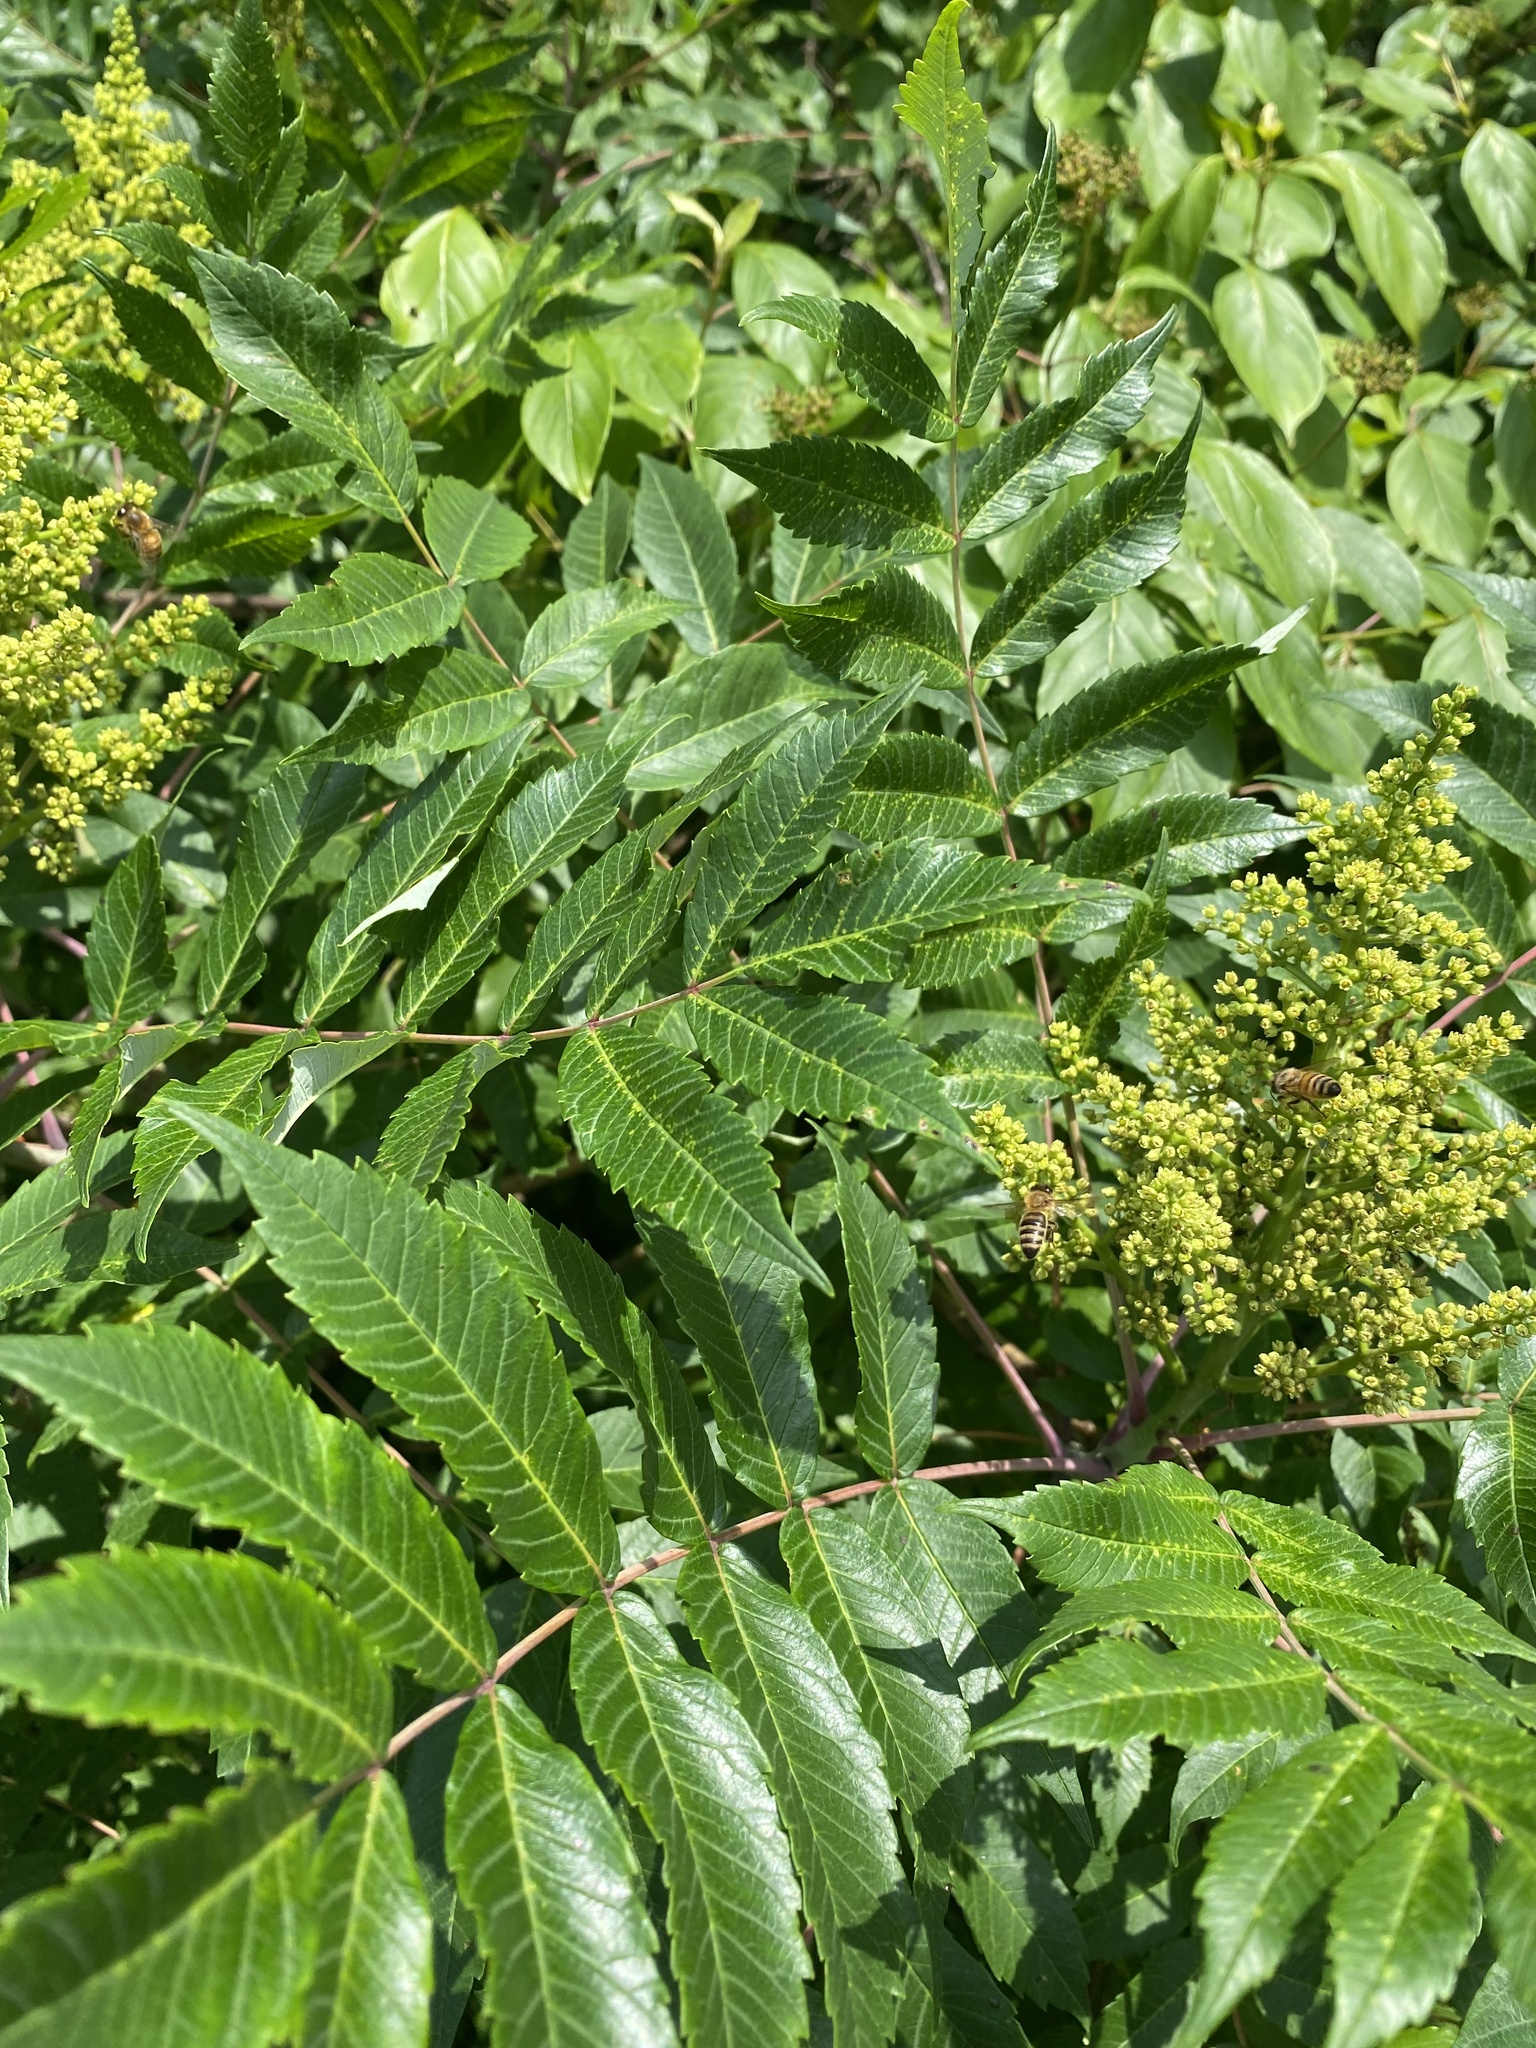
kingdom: Plantae
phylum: Tracheophyta
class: Magnoliopsida
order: Sapindales
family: Anacardiaceae
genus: Rhus
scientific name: Rhus glabra
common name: Scarlet sumac
